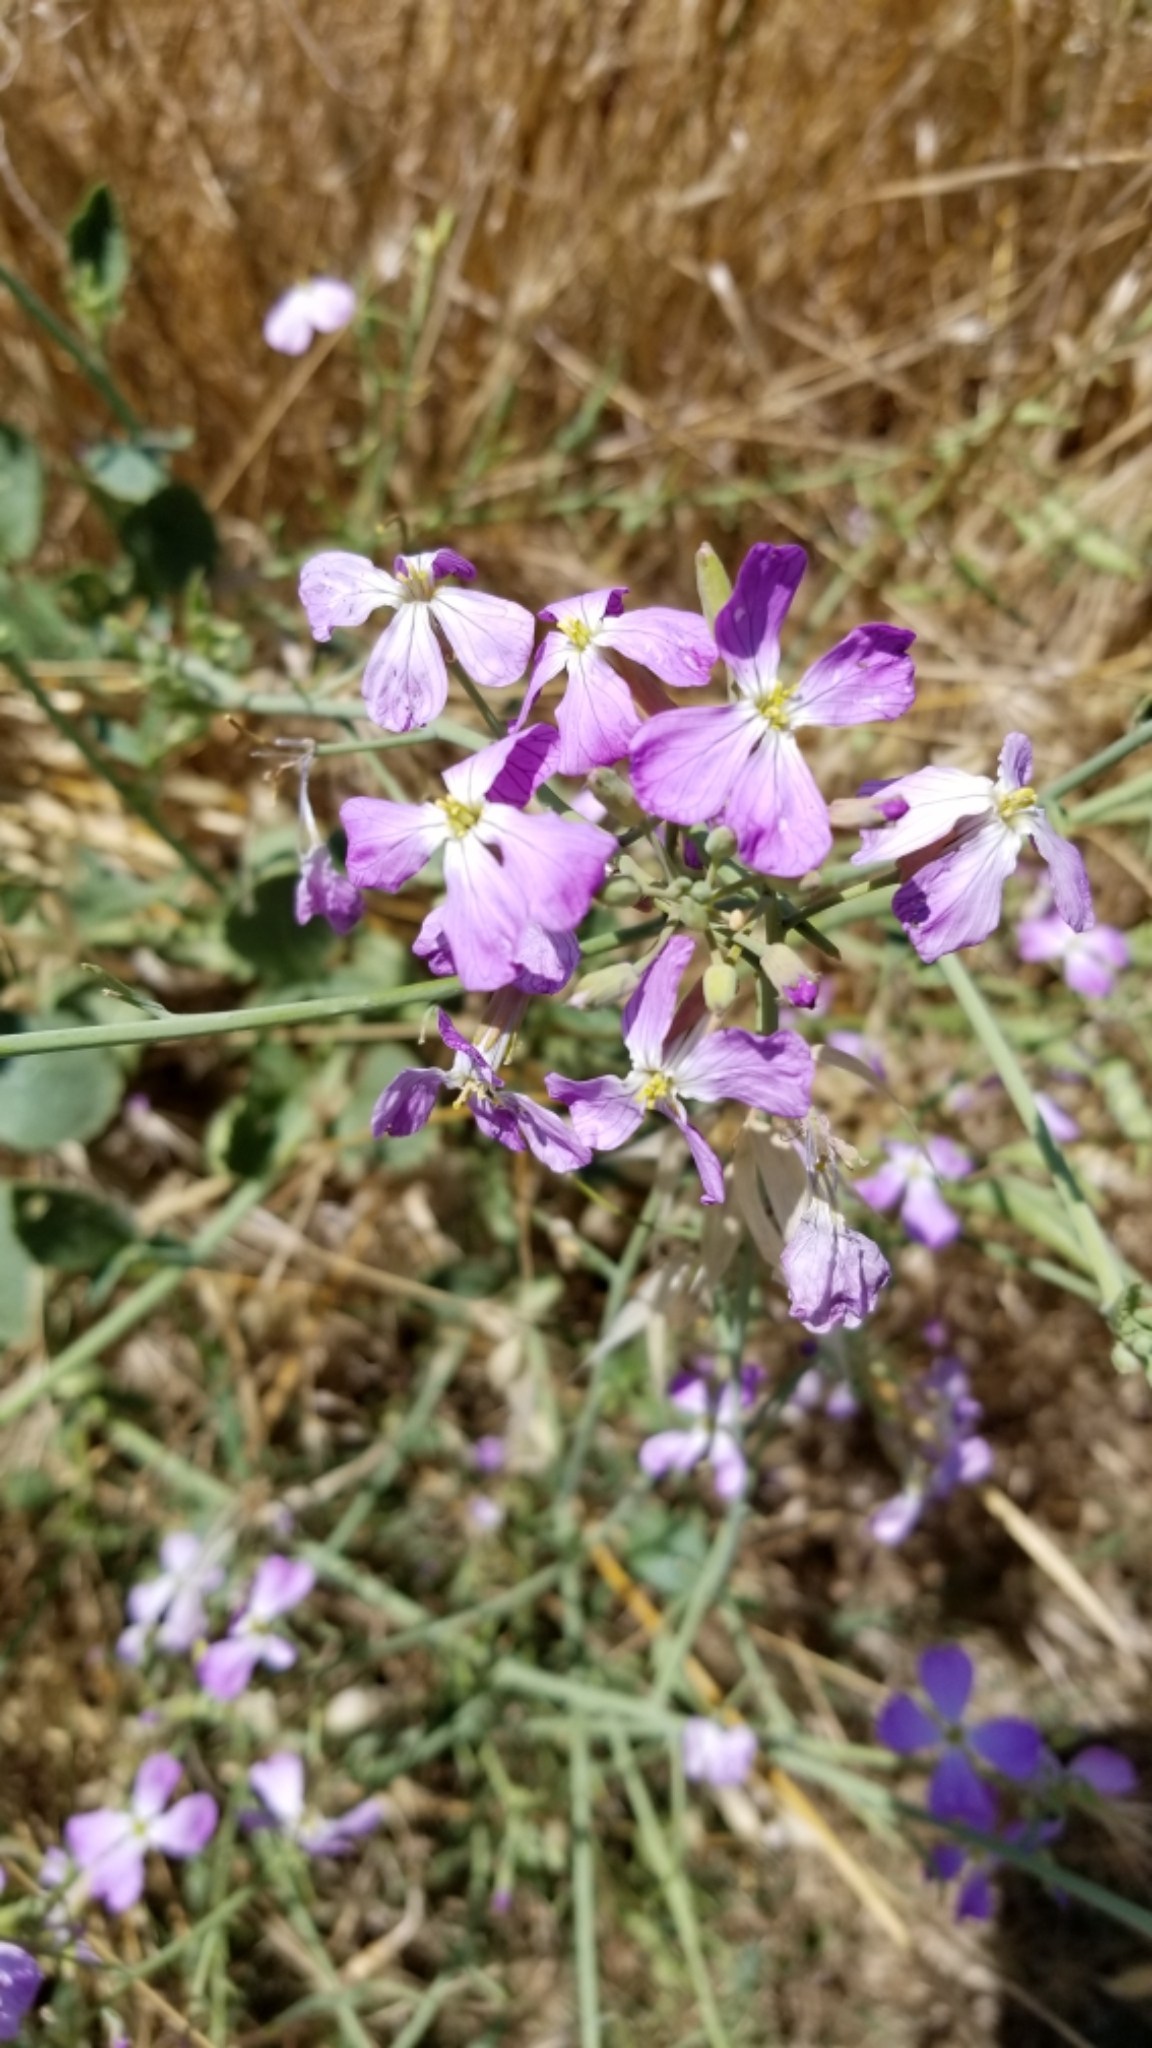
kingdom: Plantae
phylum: Tracheophyta
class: Magnoliopsida
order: Brassicales
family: Brassicaceae
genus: Raphanus
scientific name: Raphanus sativus
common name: Cultivated radish
